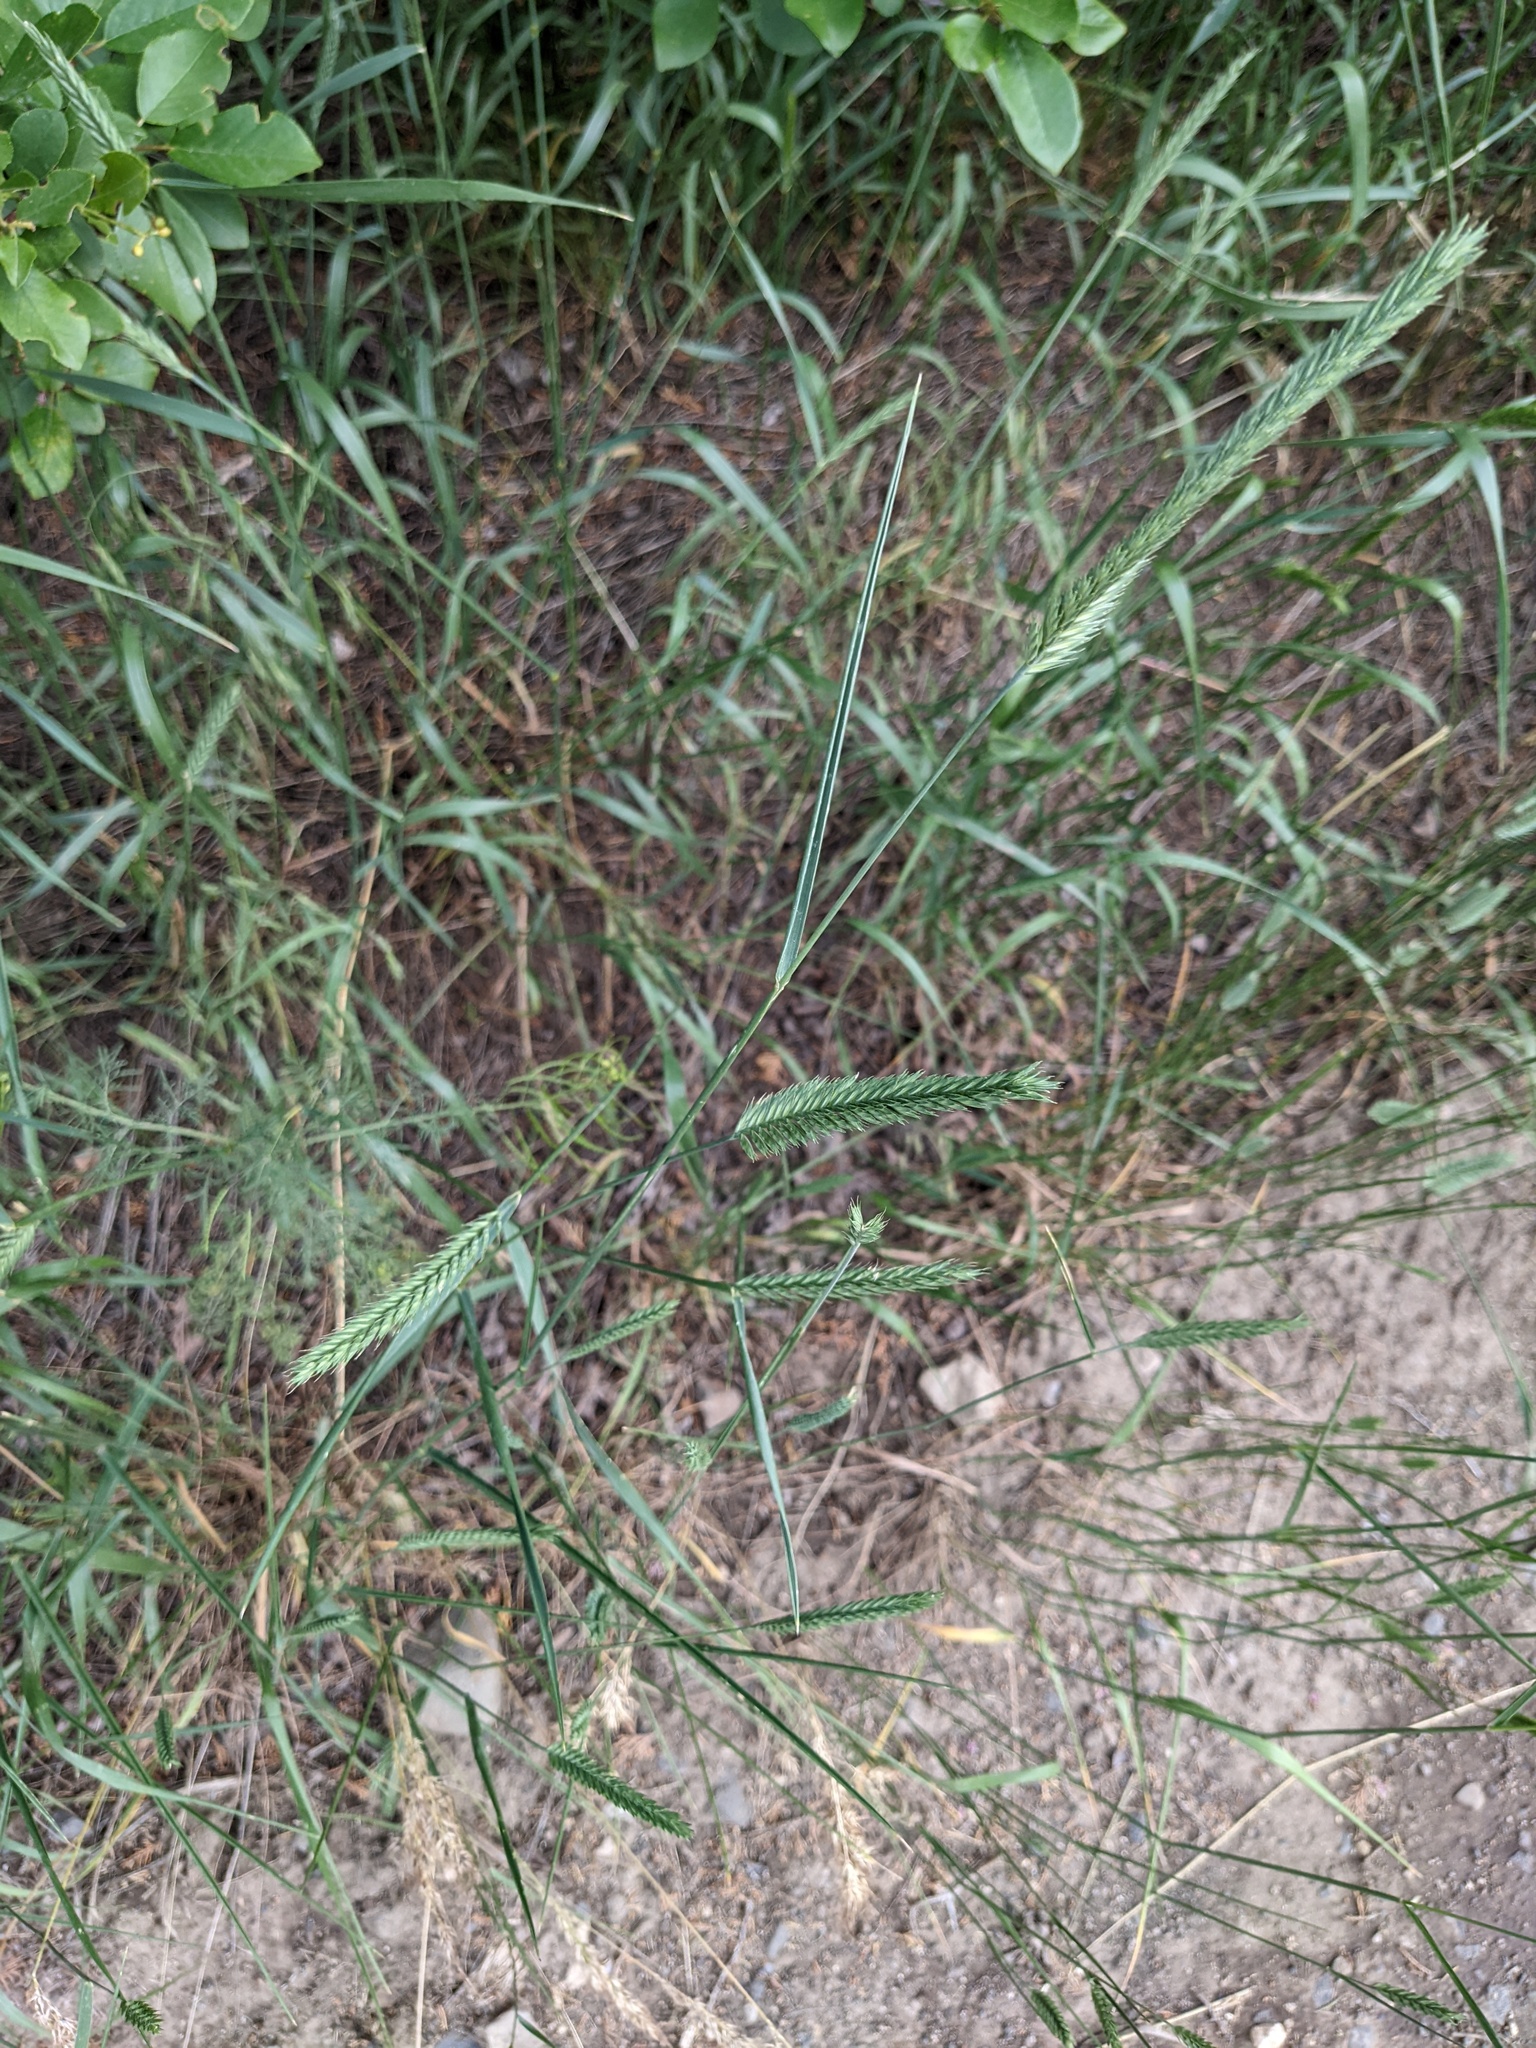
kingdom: Plantae
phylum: Tracheophyta
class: Liliopsida
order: Poales
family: Poaceae
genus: Agropyron
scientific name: Agropyron cristatum
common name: Crested wheatgrass
